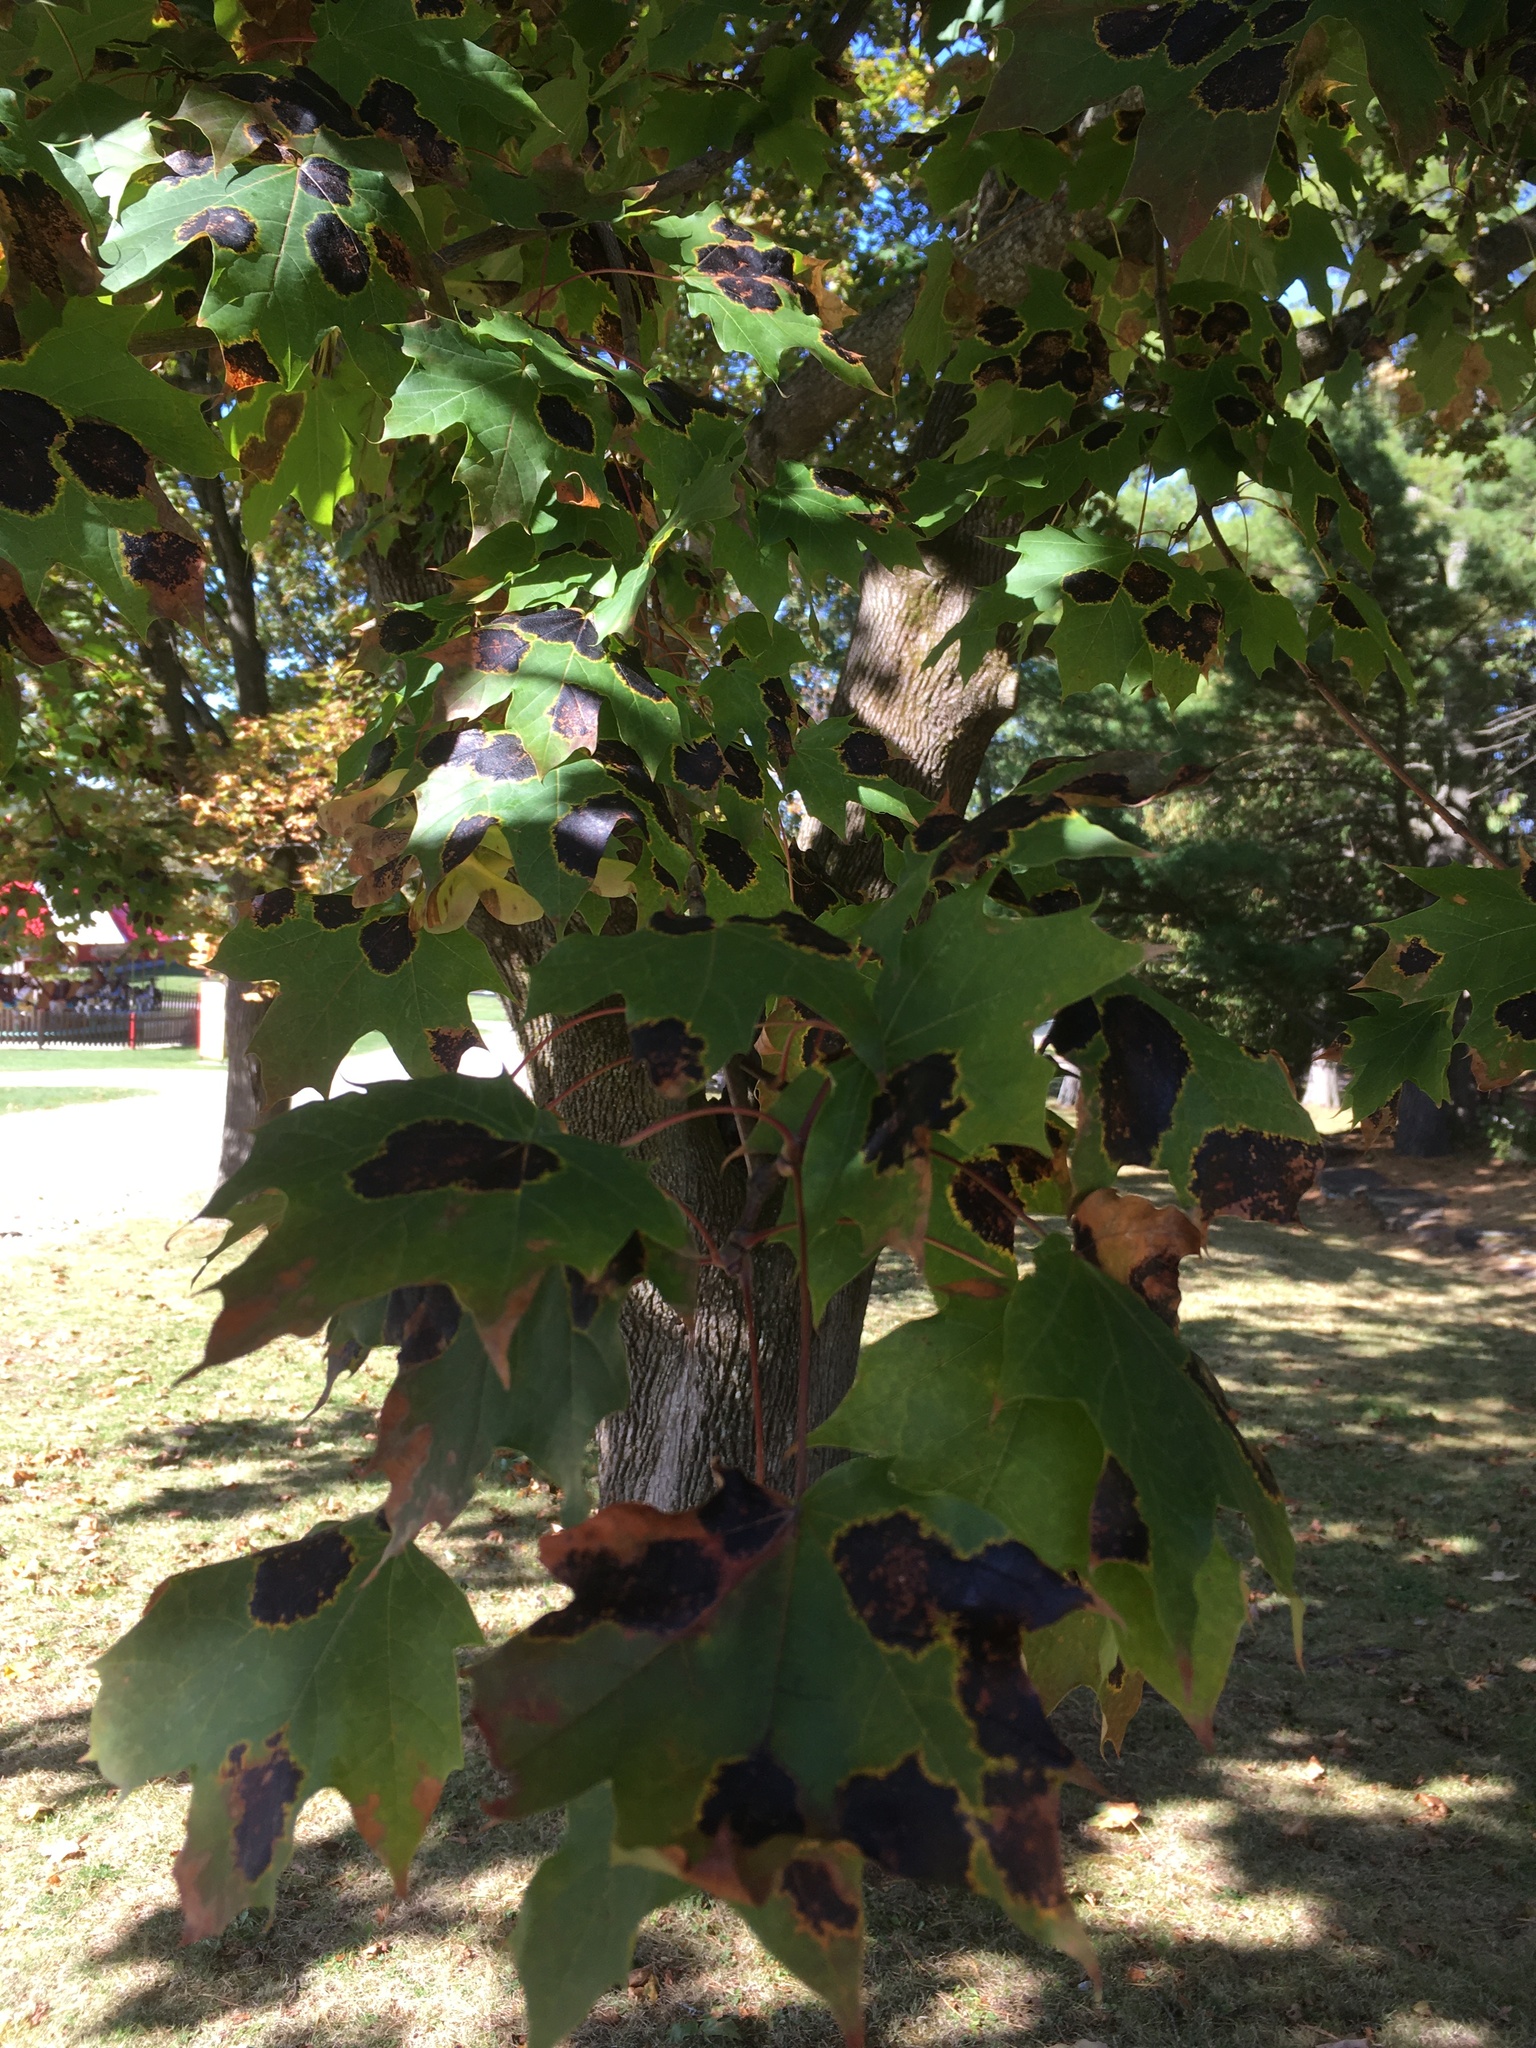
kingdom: Fungi
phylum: Ascomycota
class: Leotiomycetes
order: Rhytismatales
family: Rhytismataceae
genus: Rhytisma
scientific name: Rhytisma acerinum
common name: European tar spot
